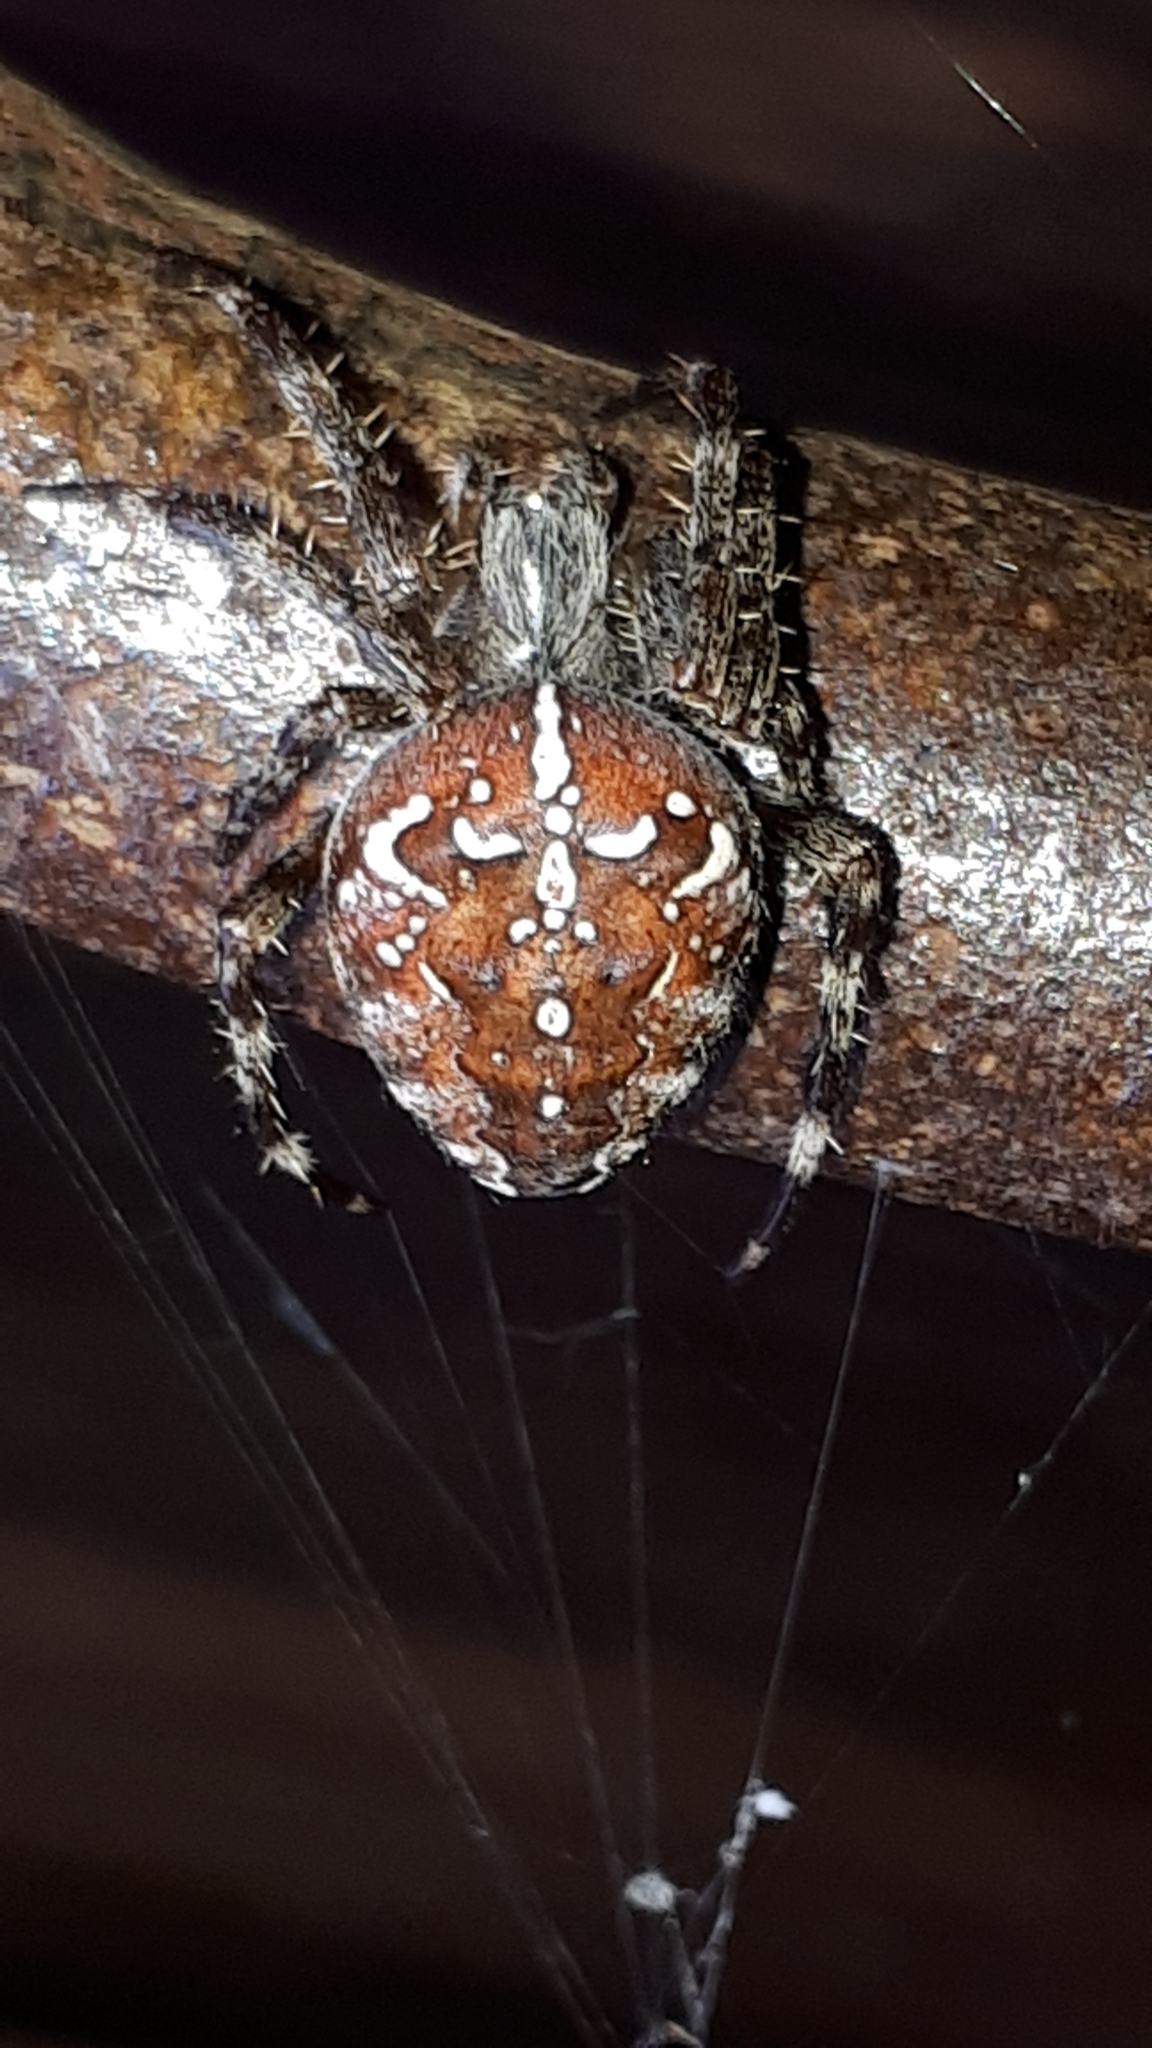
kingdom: Animalia
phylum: Arthropoda
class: Arachnida
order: Araneae
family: Araneidae
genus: Araneus
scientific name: Araneus diadematus
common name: Cross orbweaver
